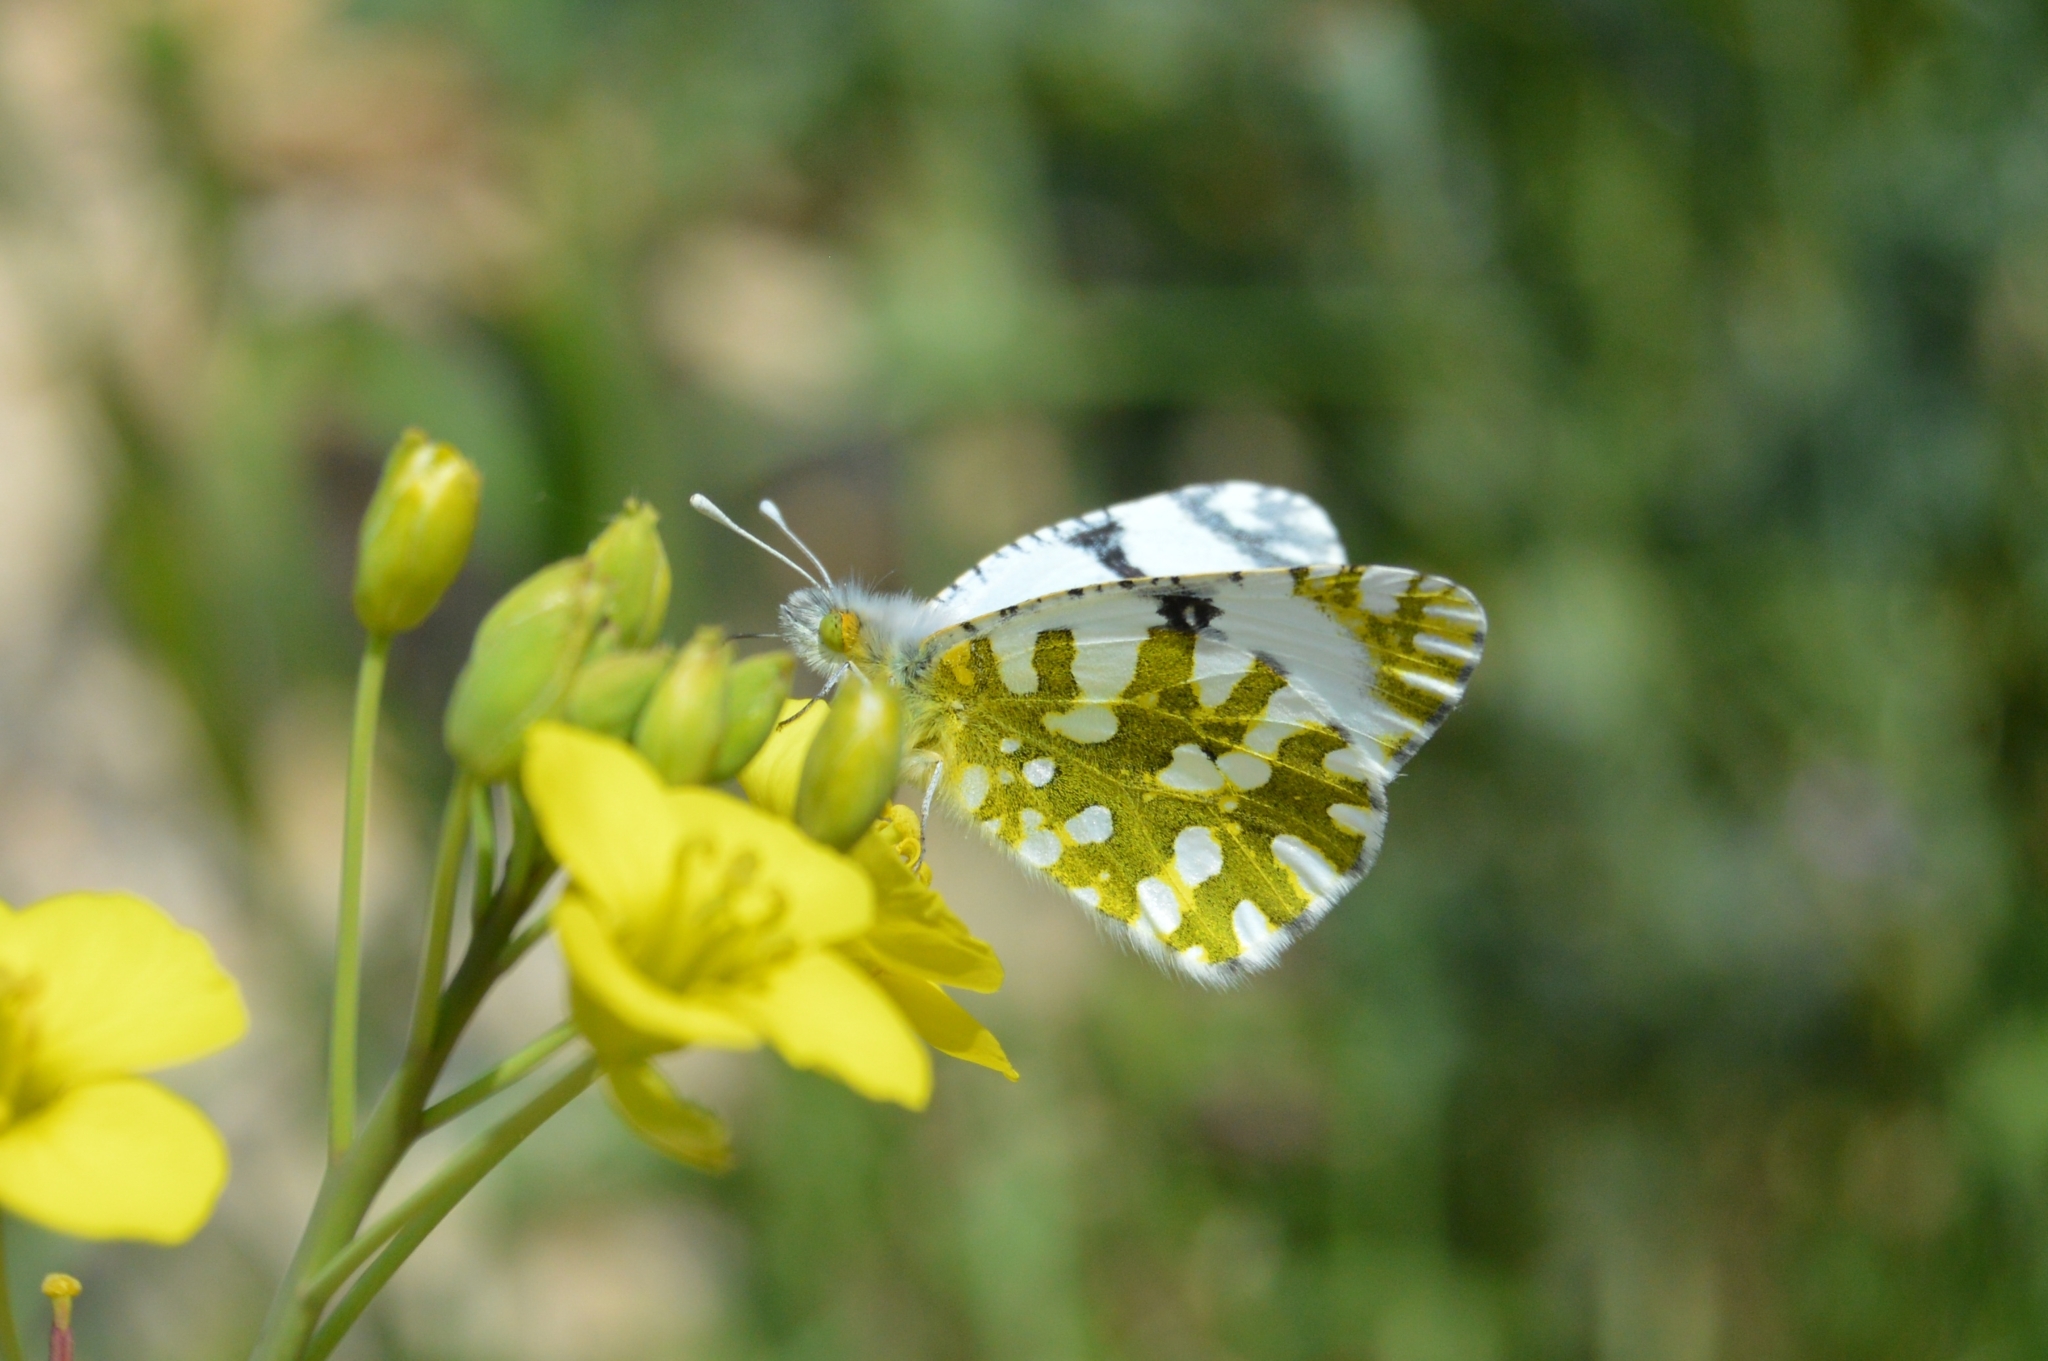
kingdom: Animalia
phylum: Arthropoda
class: Insecta
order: Lepidoptera
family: Pieridae
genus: Euchloe
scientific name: Euchloe ausonia
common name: Eastern dappled white
